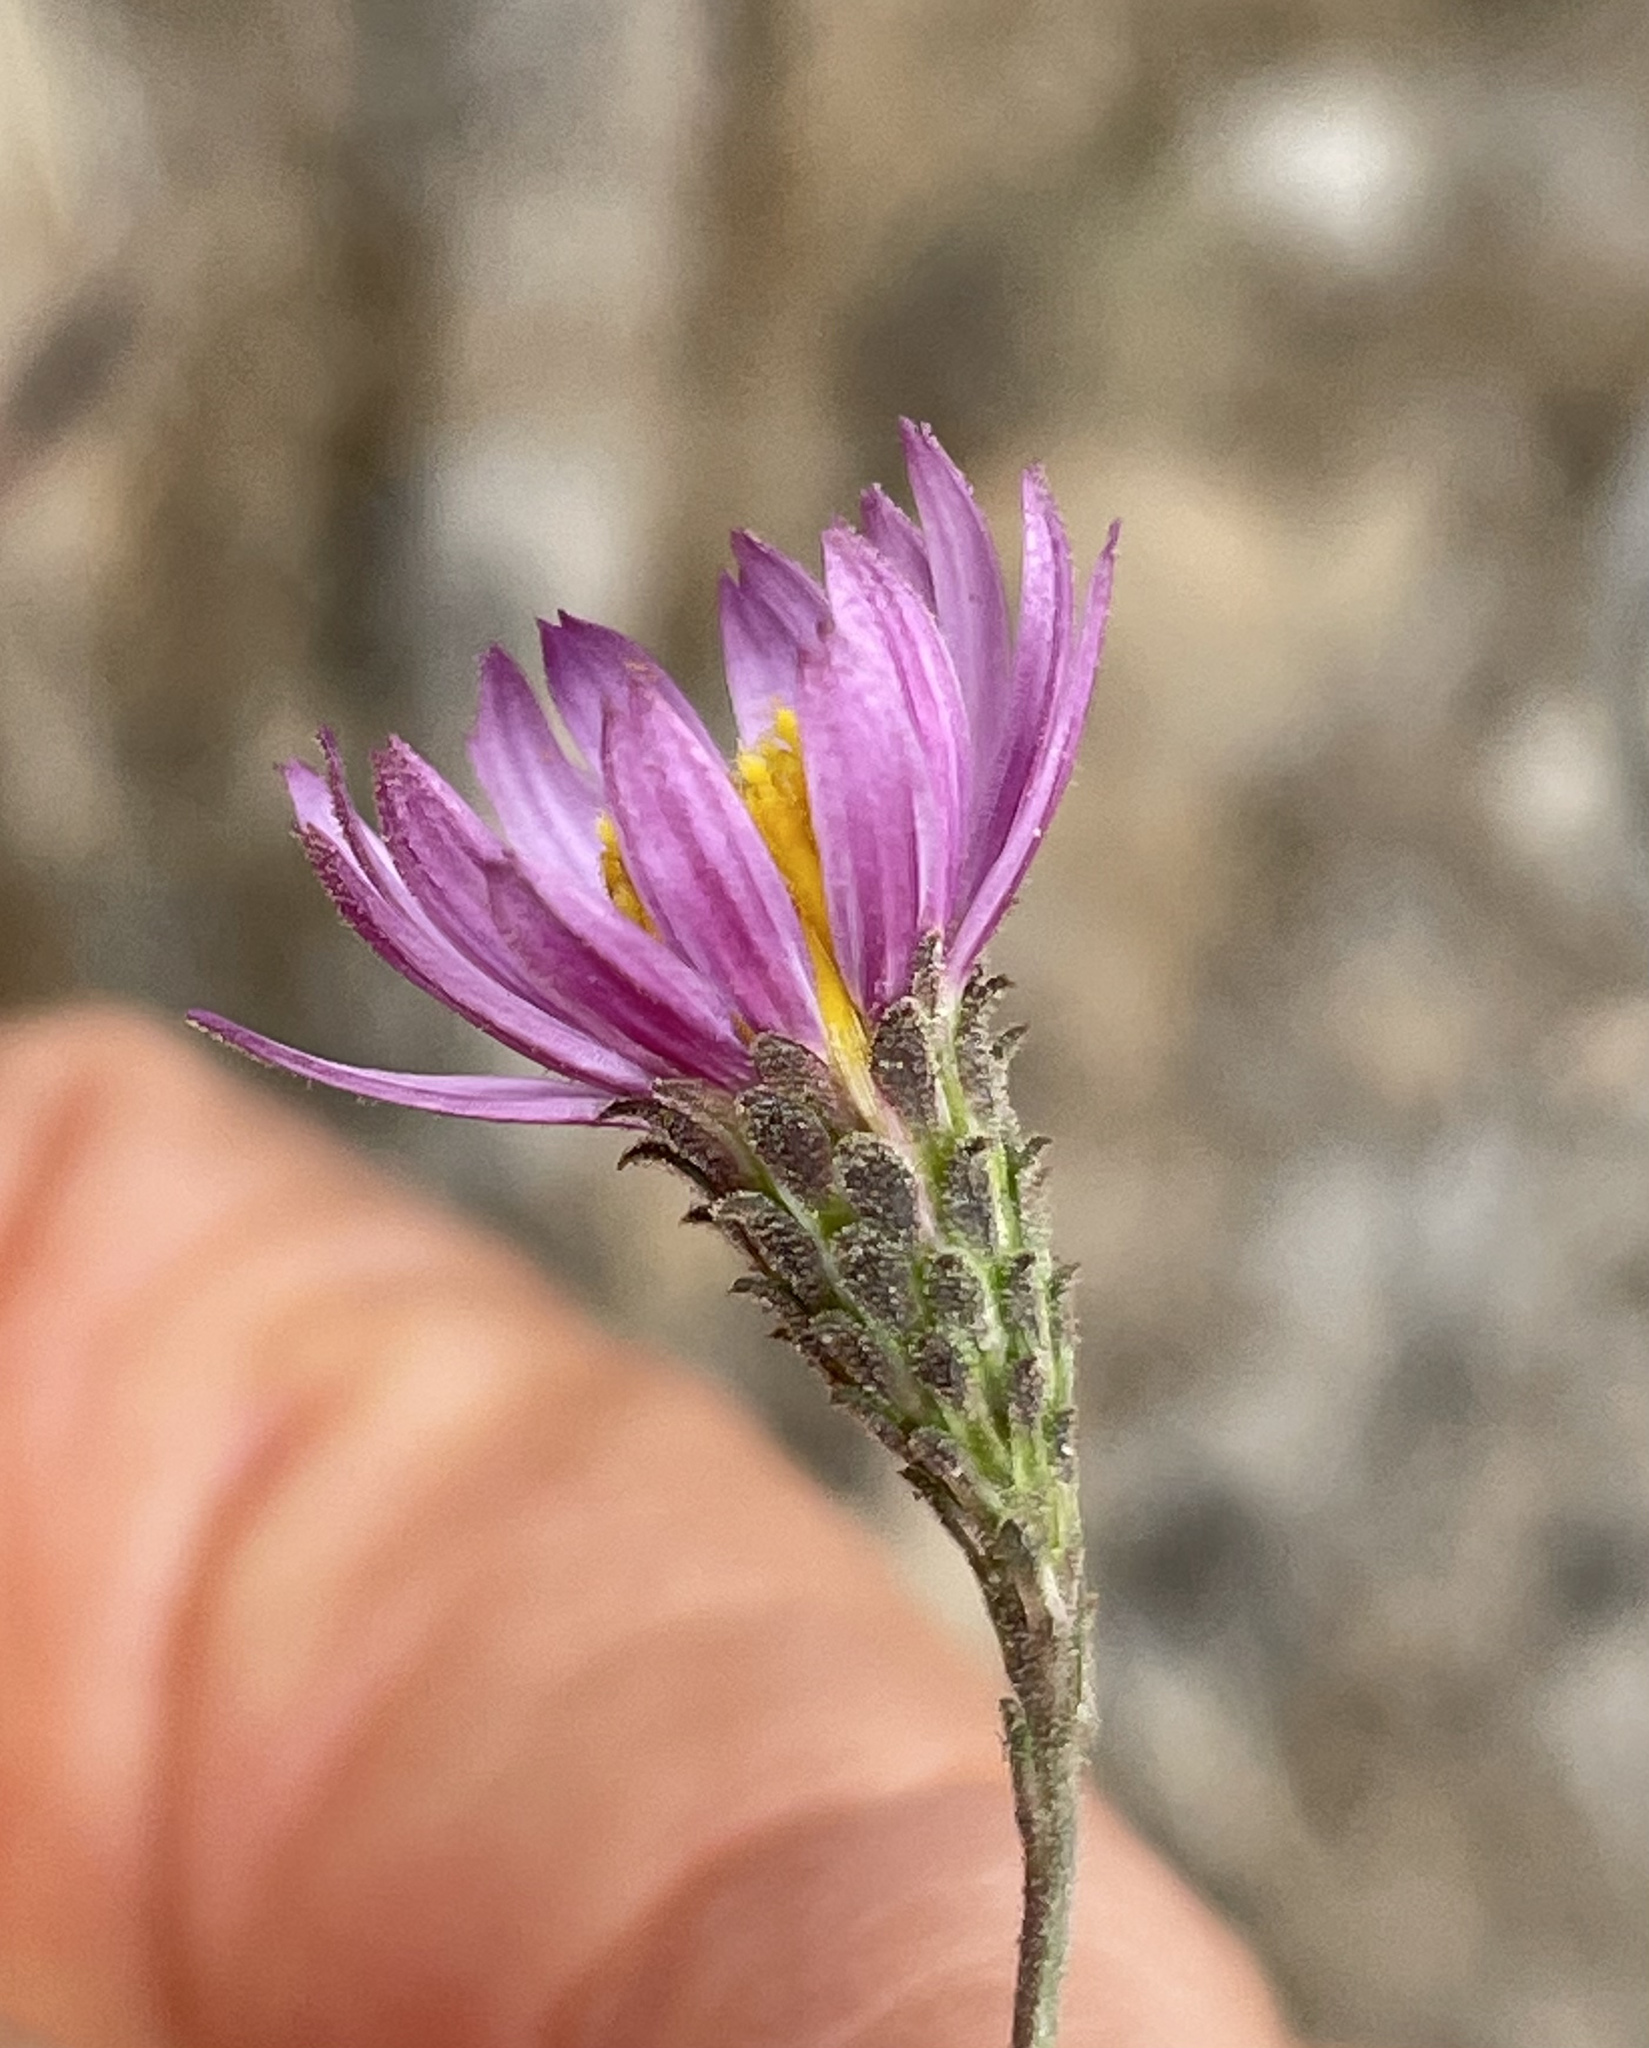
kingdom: Plantae
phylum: Tracheophyta
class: Magnoliopsida
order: Asterales
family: Asteraceae
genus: Corethrogyne
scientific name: Corethrogyne filaginifolia
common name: Sand-aster
